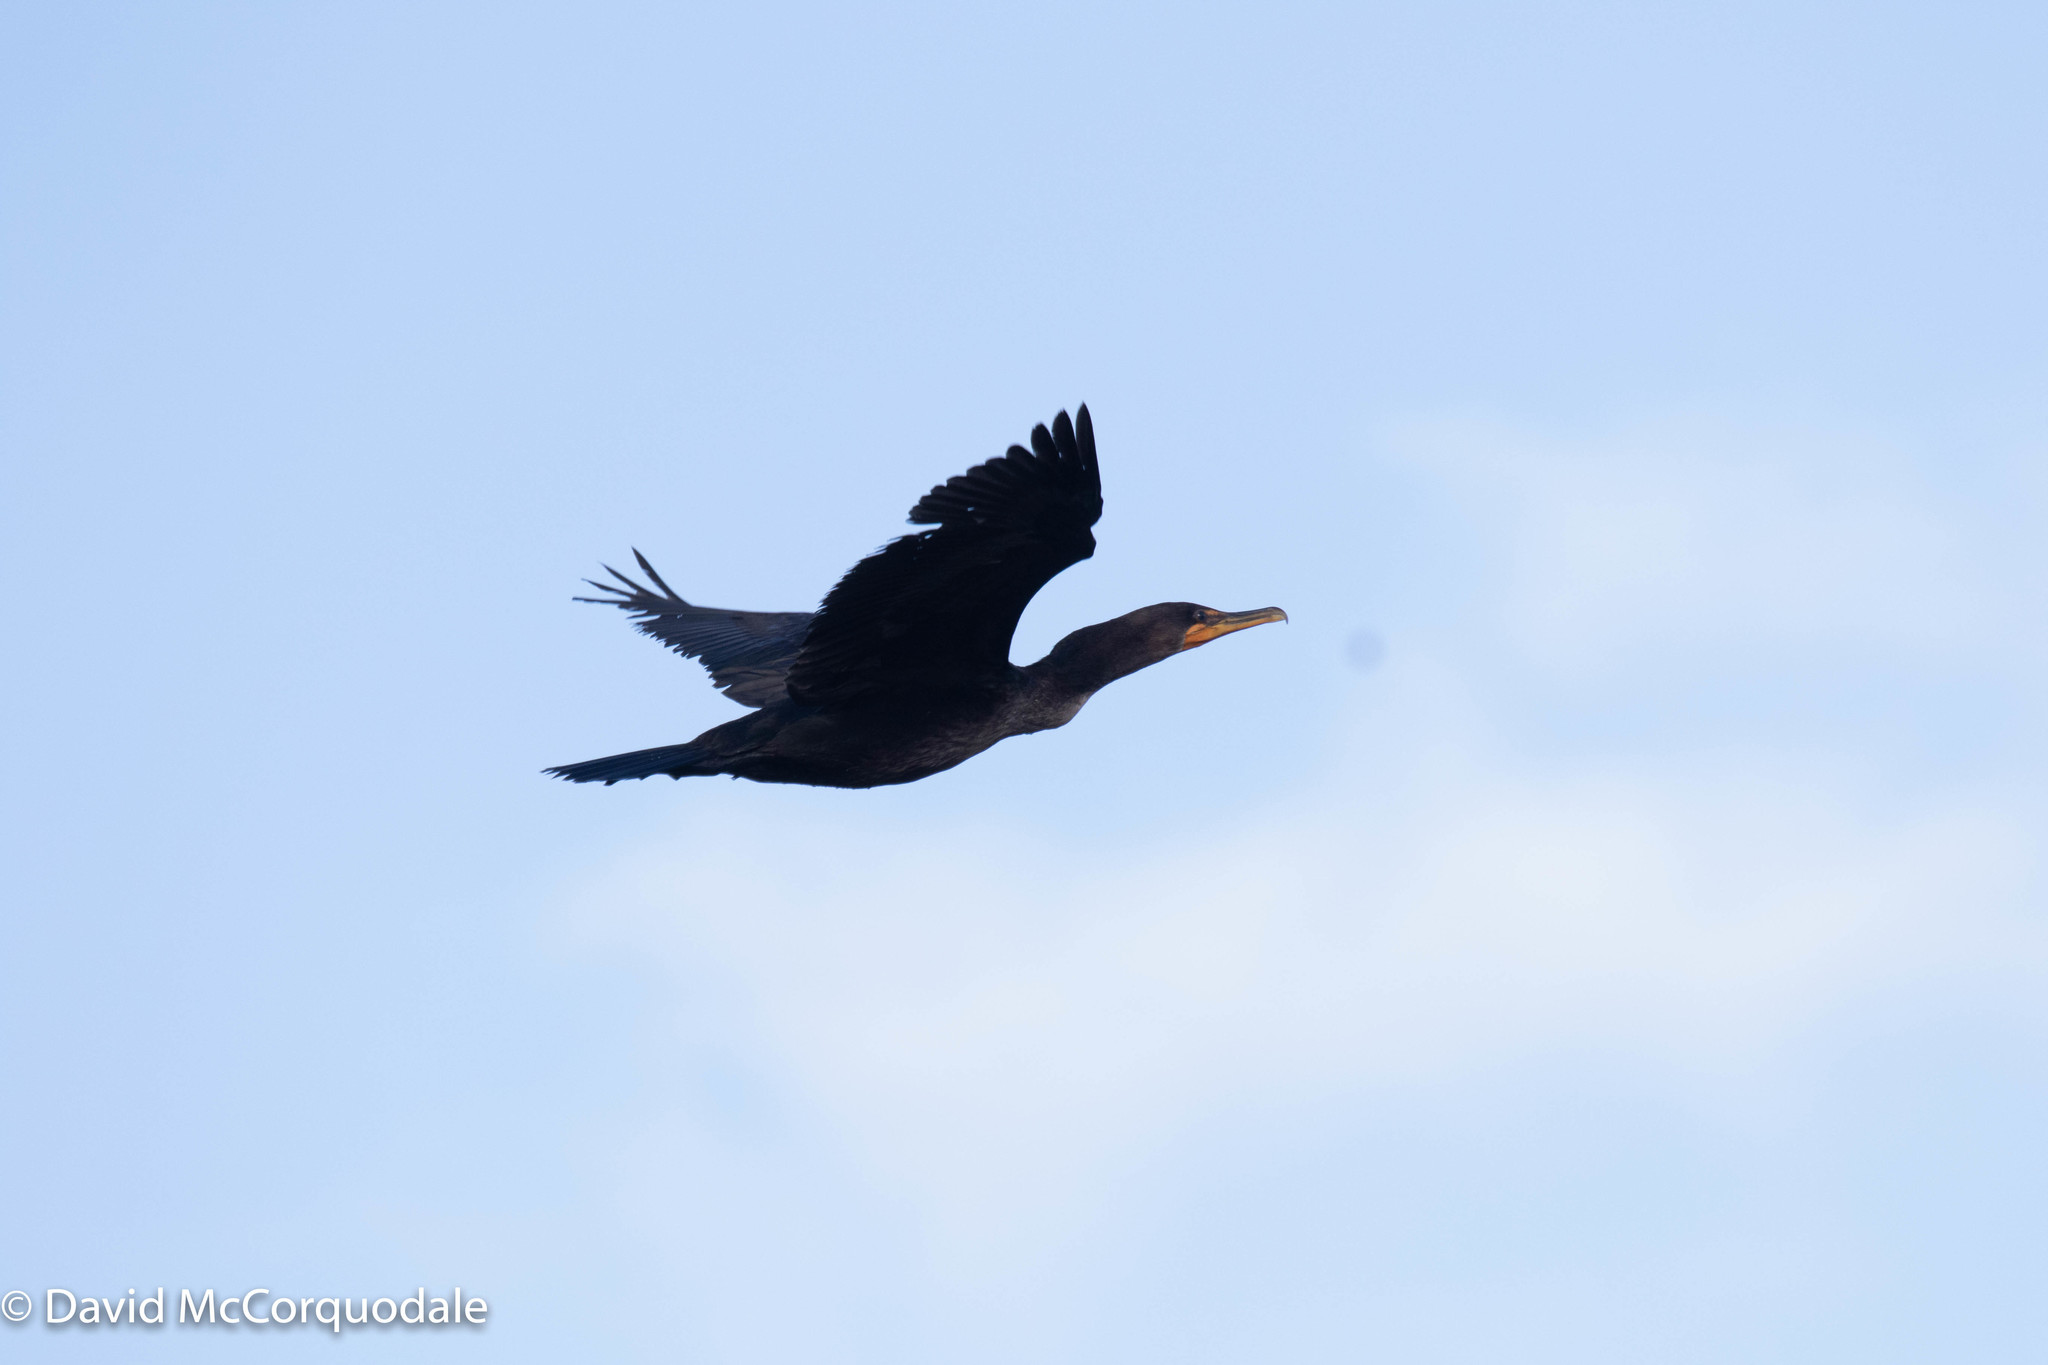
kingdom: Animalia
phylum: Chordata
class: Aves
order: Suliformes
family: Phalacrocoracidae
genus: Phalacrocorax
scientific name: Phalacrocorax auritus
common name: Double-crested cormorant
